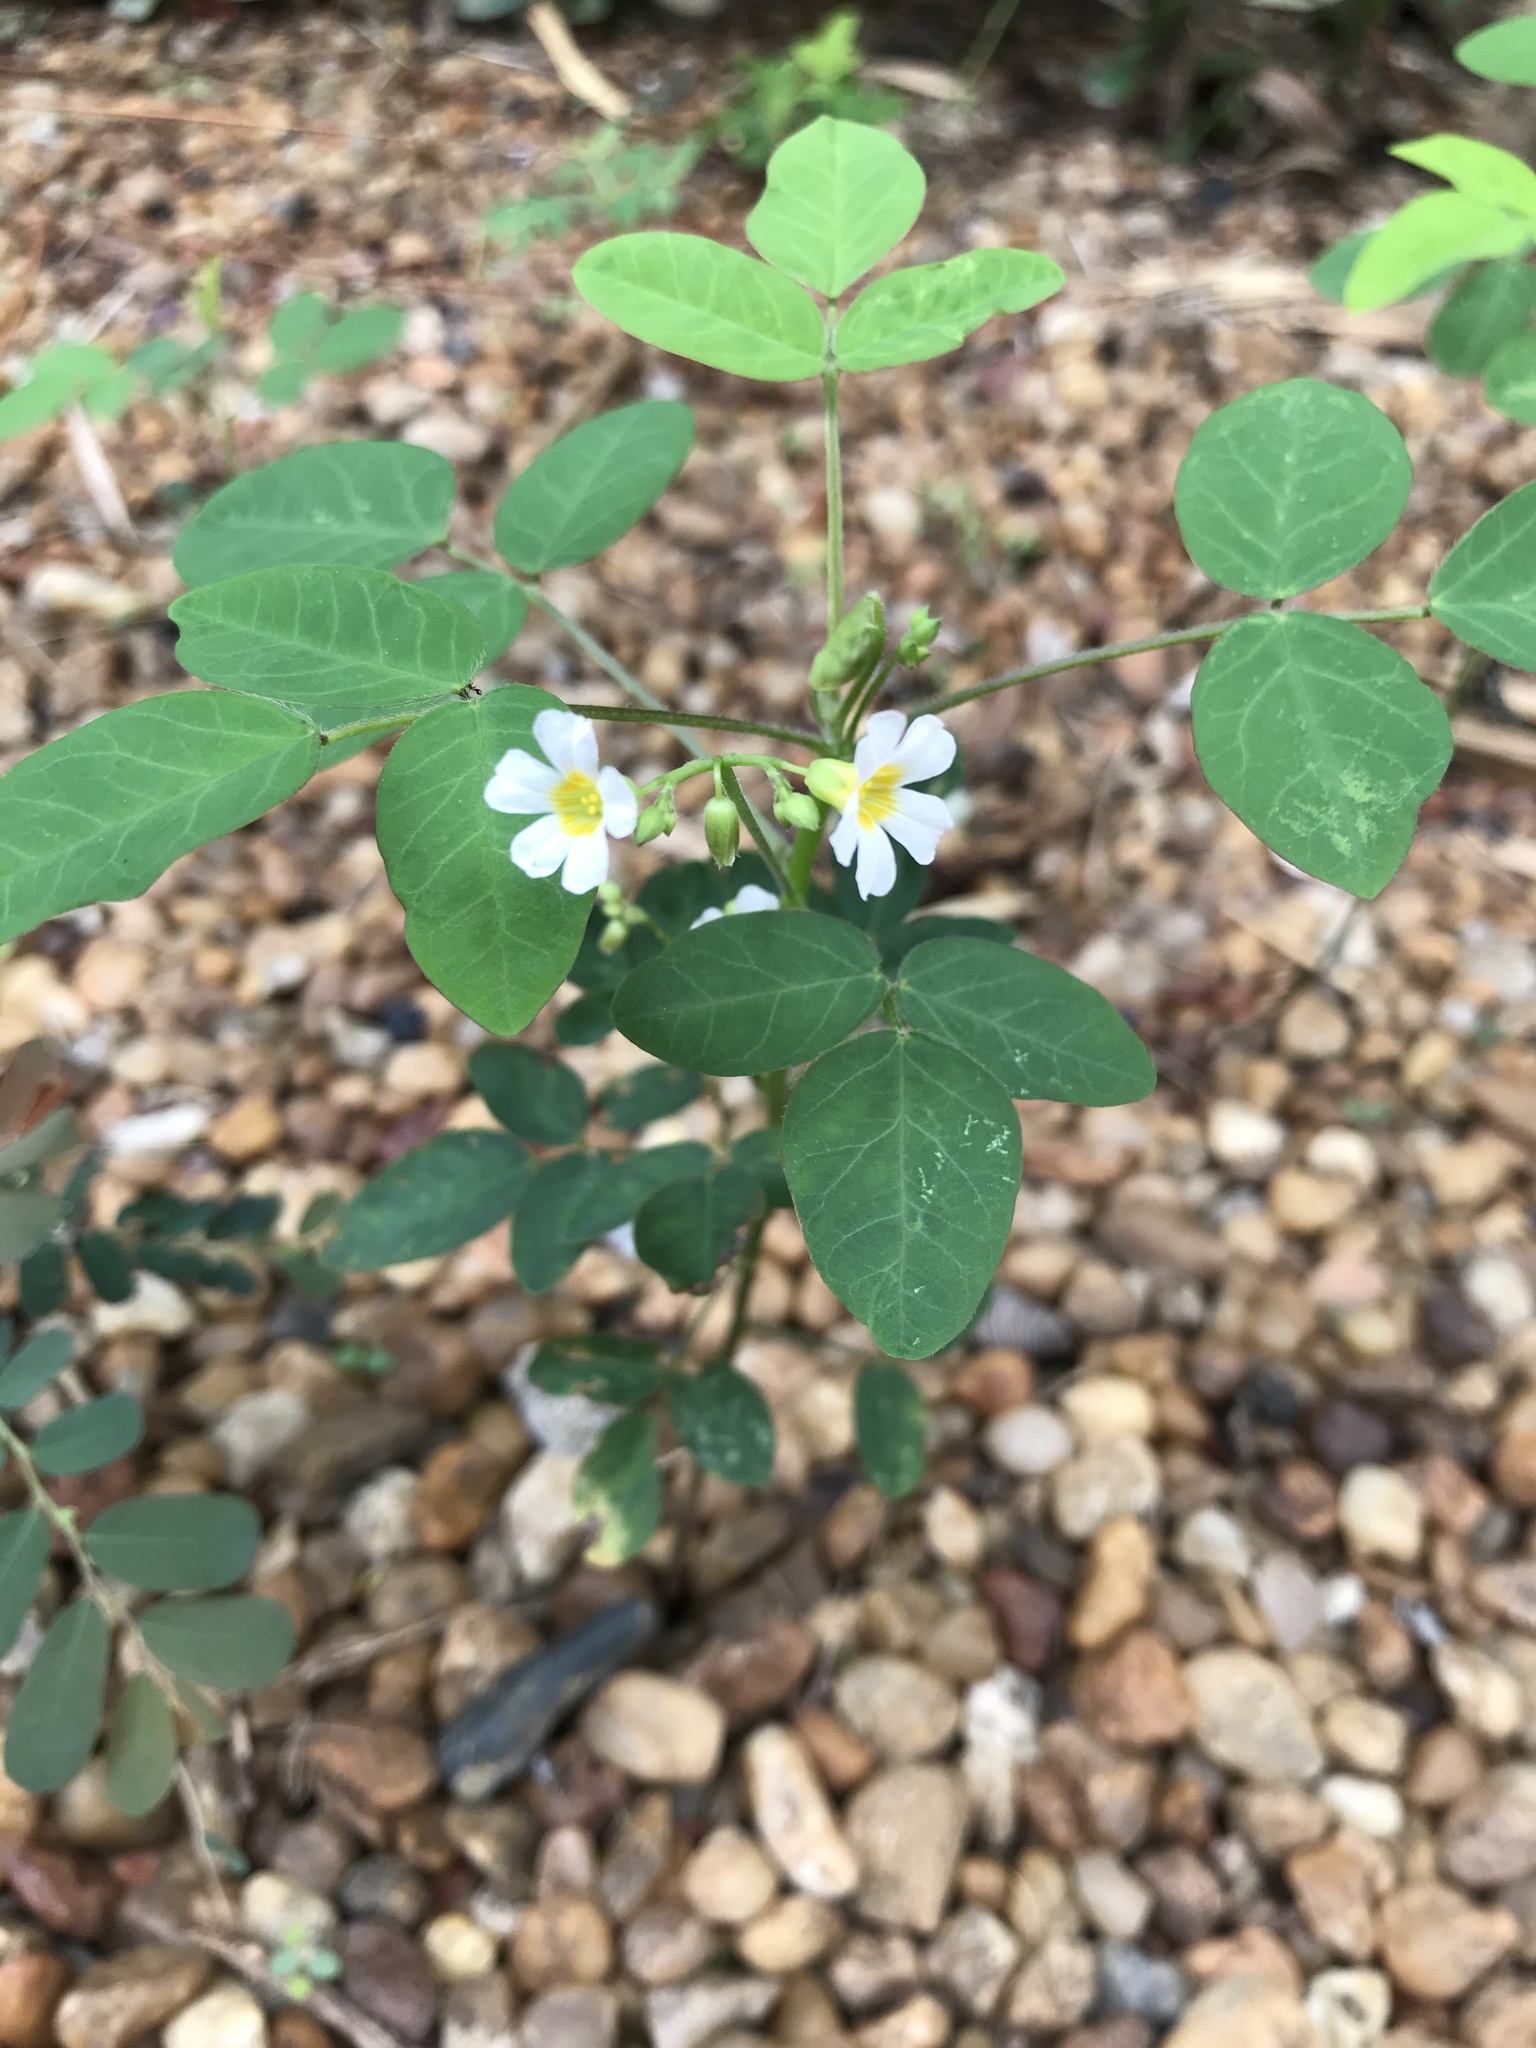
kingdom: Plantae
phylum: Tracheophyta
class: Magnoliopsida
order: Oxalidales
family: Oxalidaceae
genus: Oxalis
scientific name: Oxalis barrelieri
